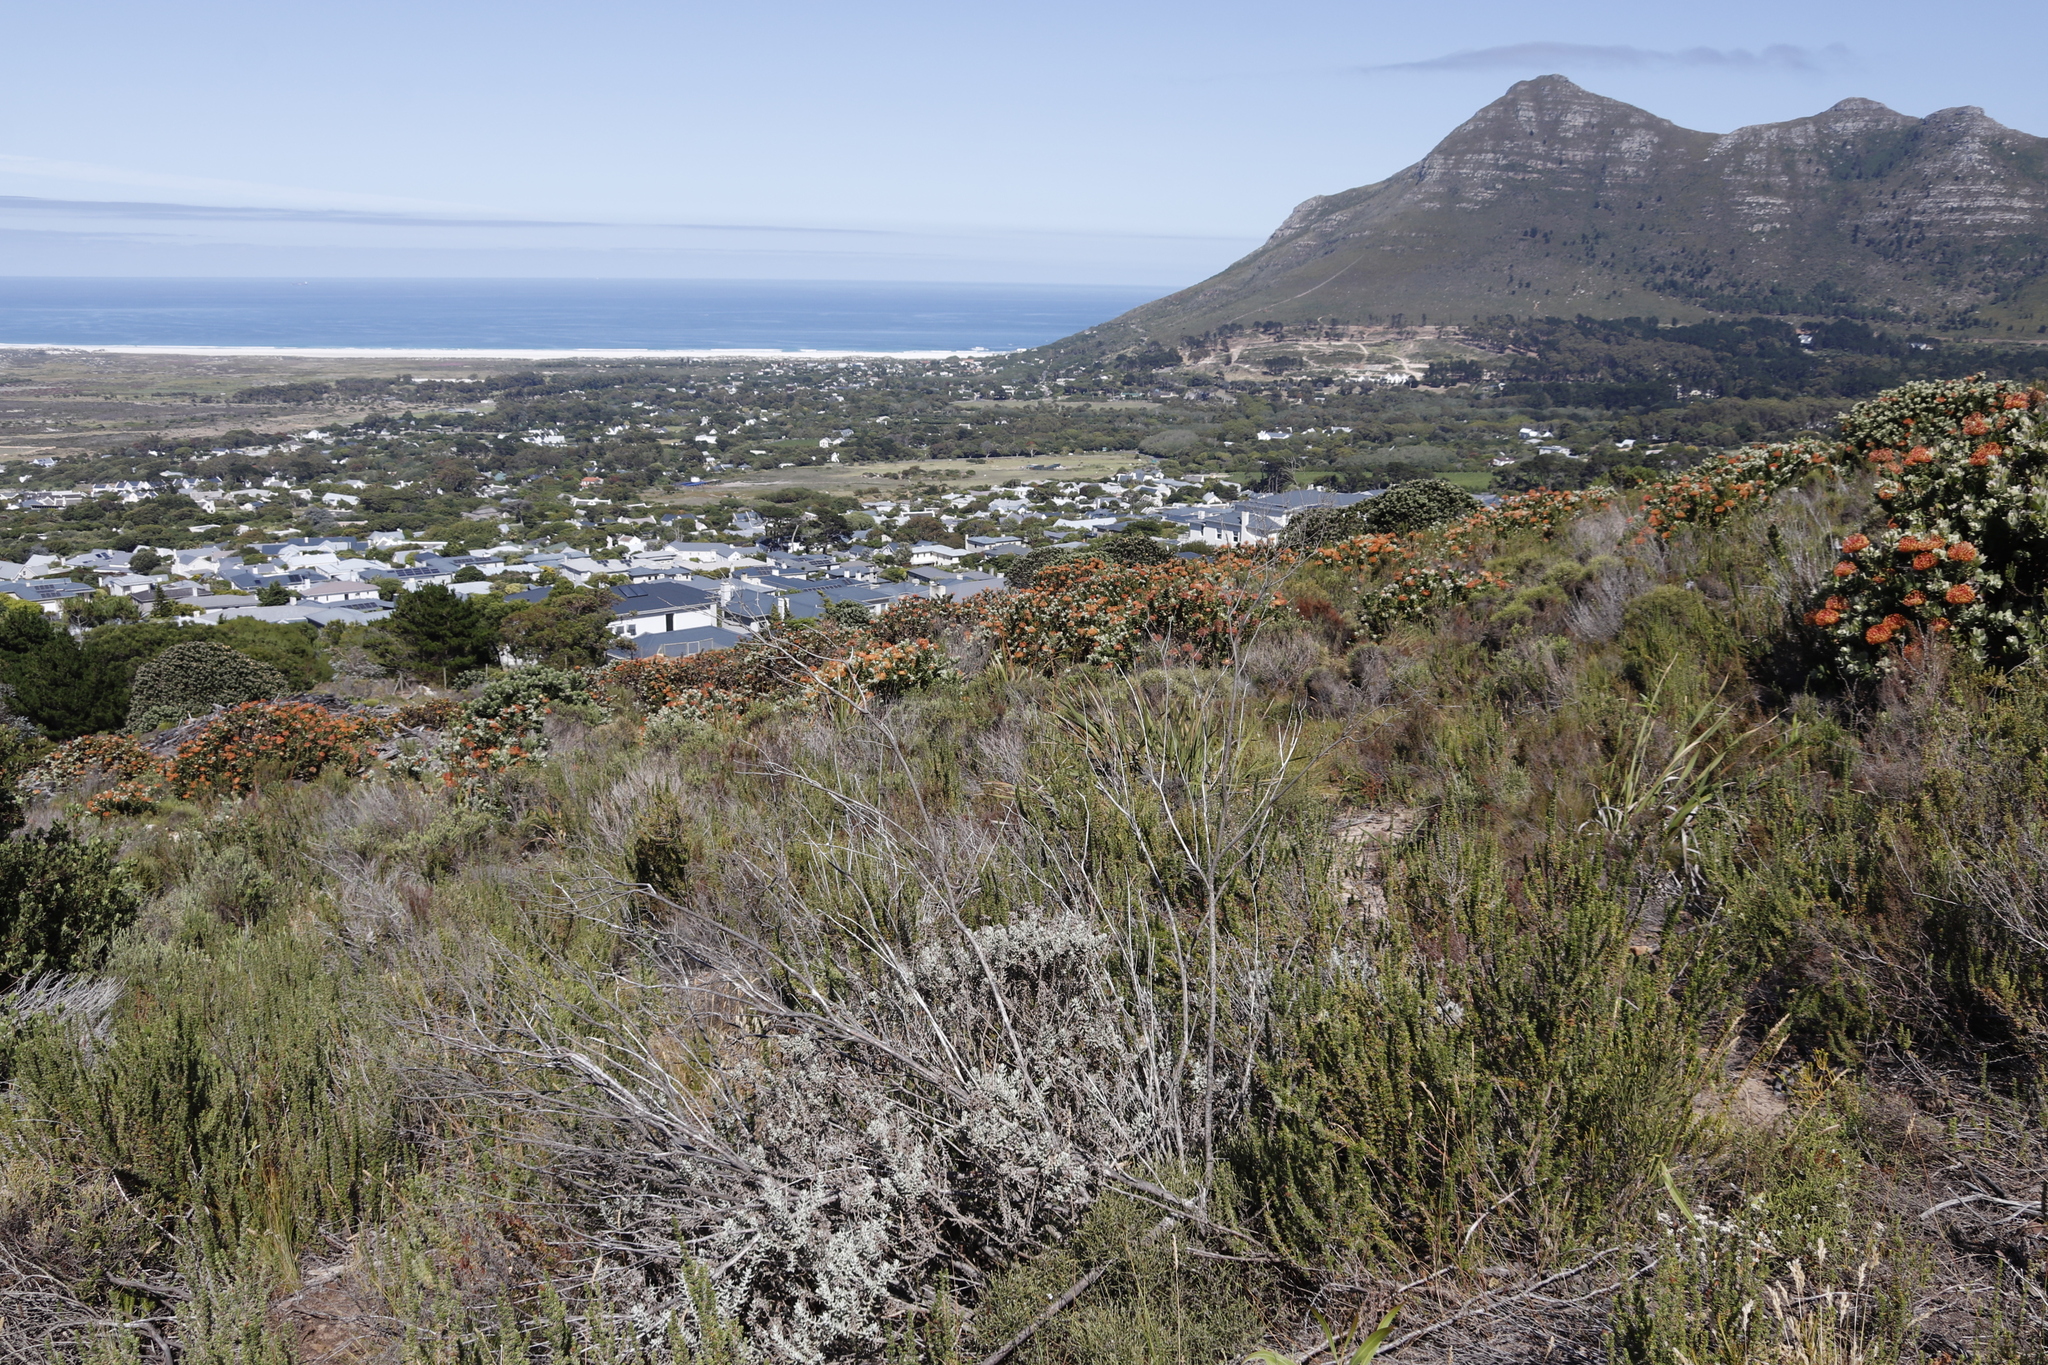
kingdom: Plantae
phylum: Tracheophyta
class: Magnoliopsida
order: Proteales
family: Proteaceae
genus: Leucospermum
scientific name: Leucospermum cordifolium
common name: Red pincushion-protea
